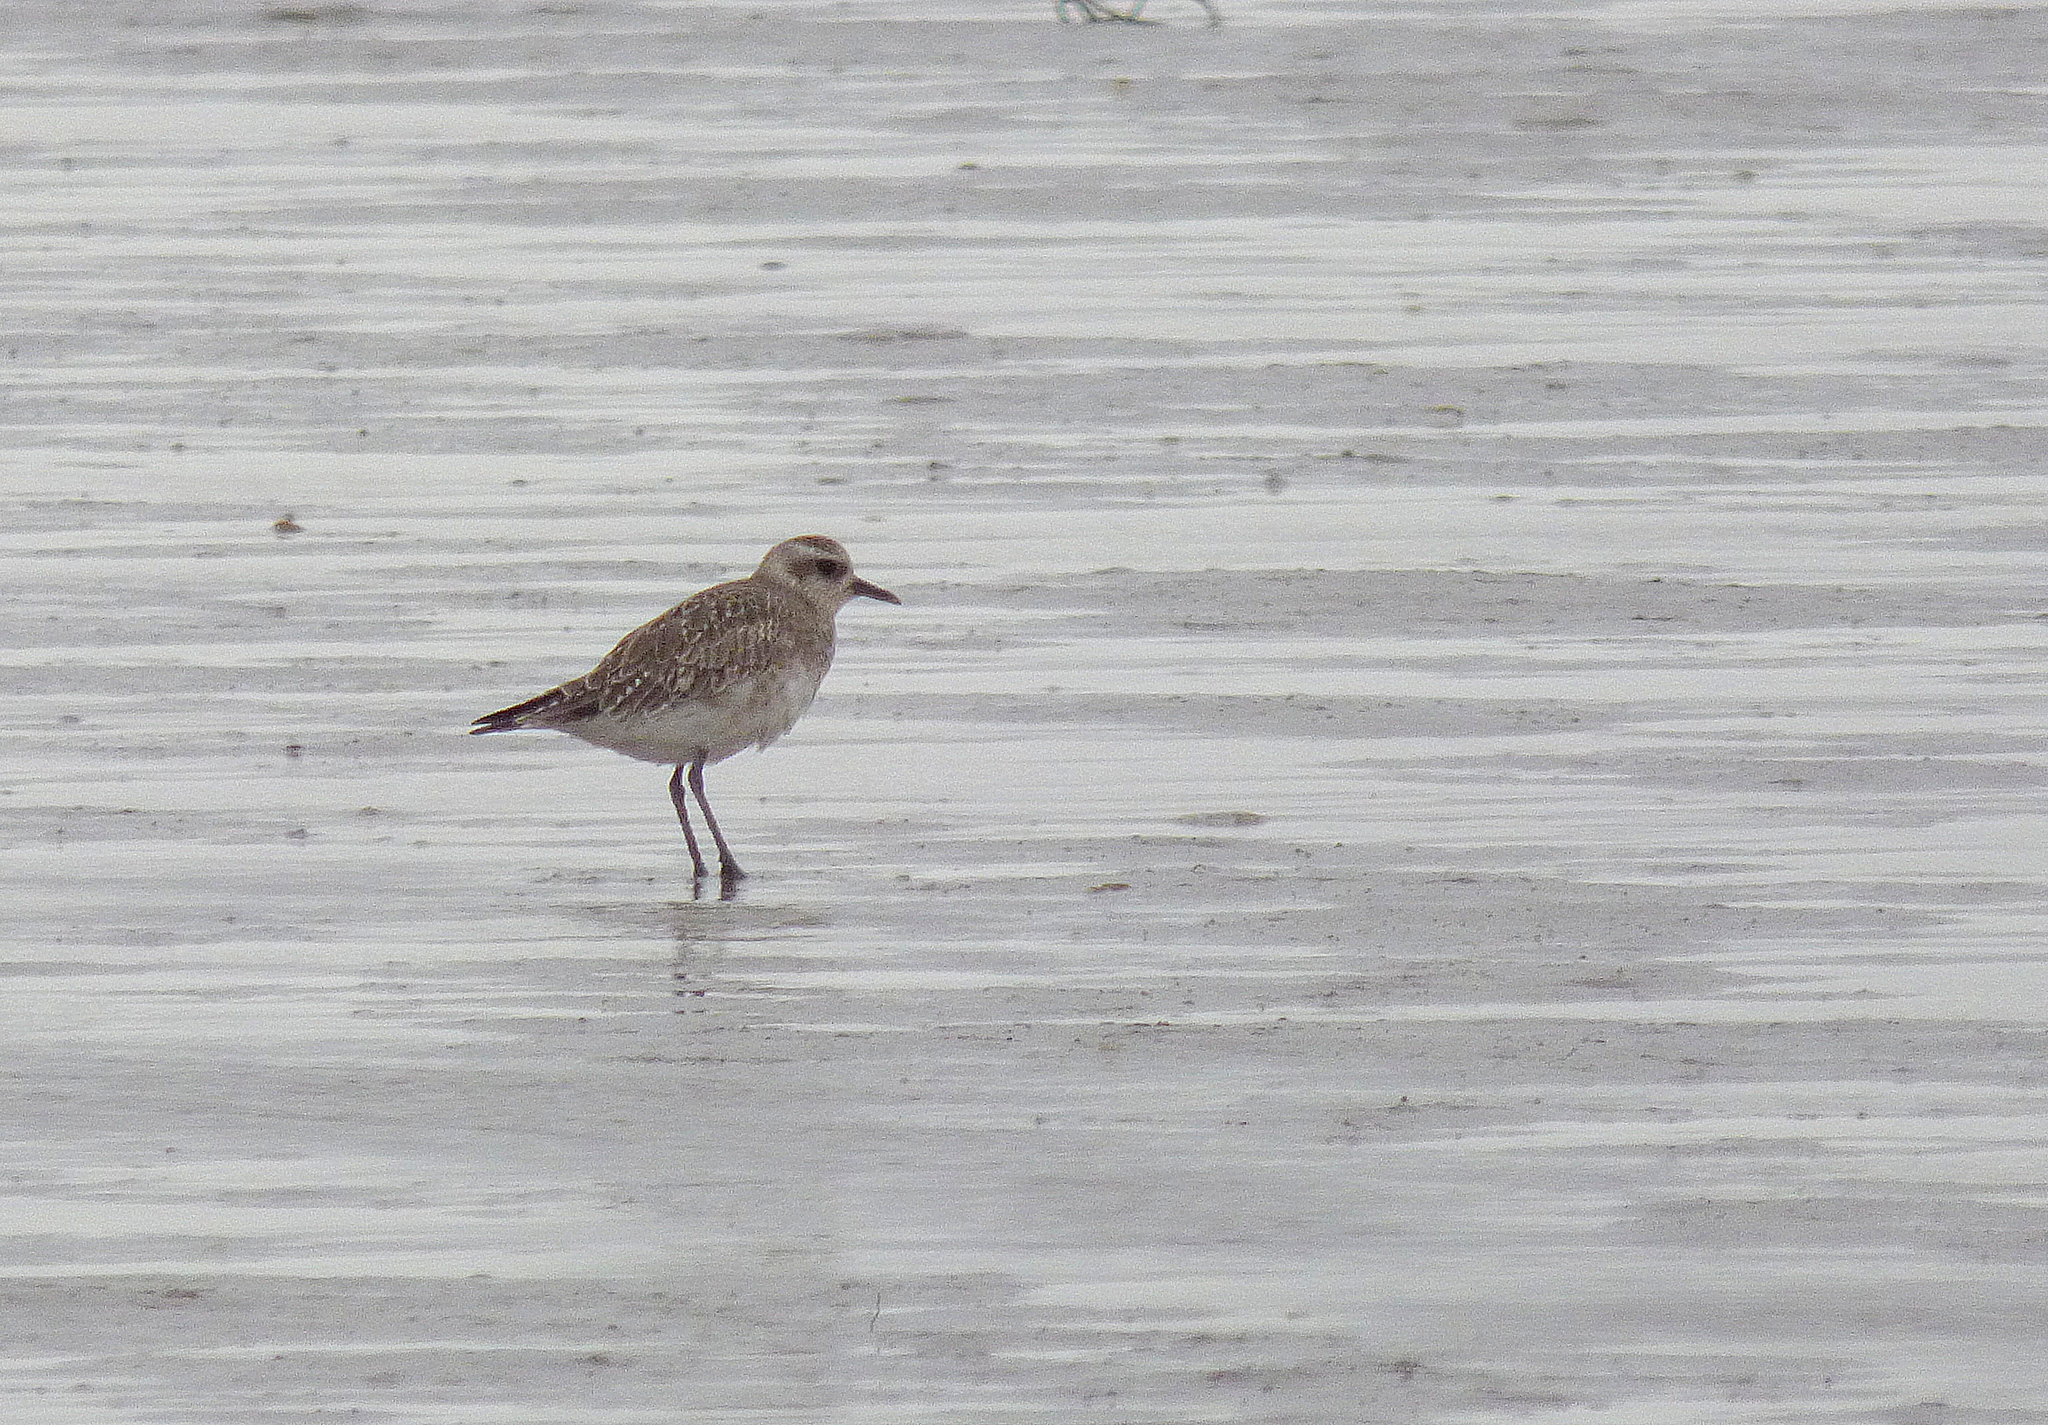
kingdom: Animalia
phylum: Chordata
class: Aves
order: Charadriiformes
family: Charadriidae
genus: Pluvialis
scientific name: Pluvialis dominica
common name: American golden plover
